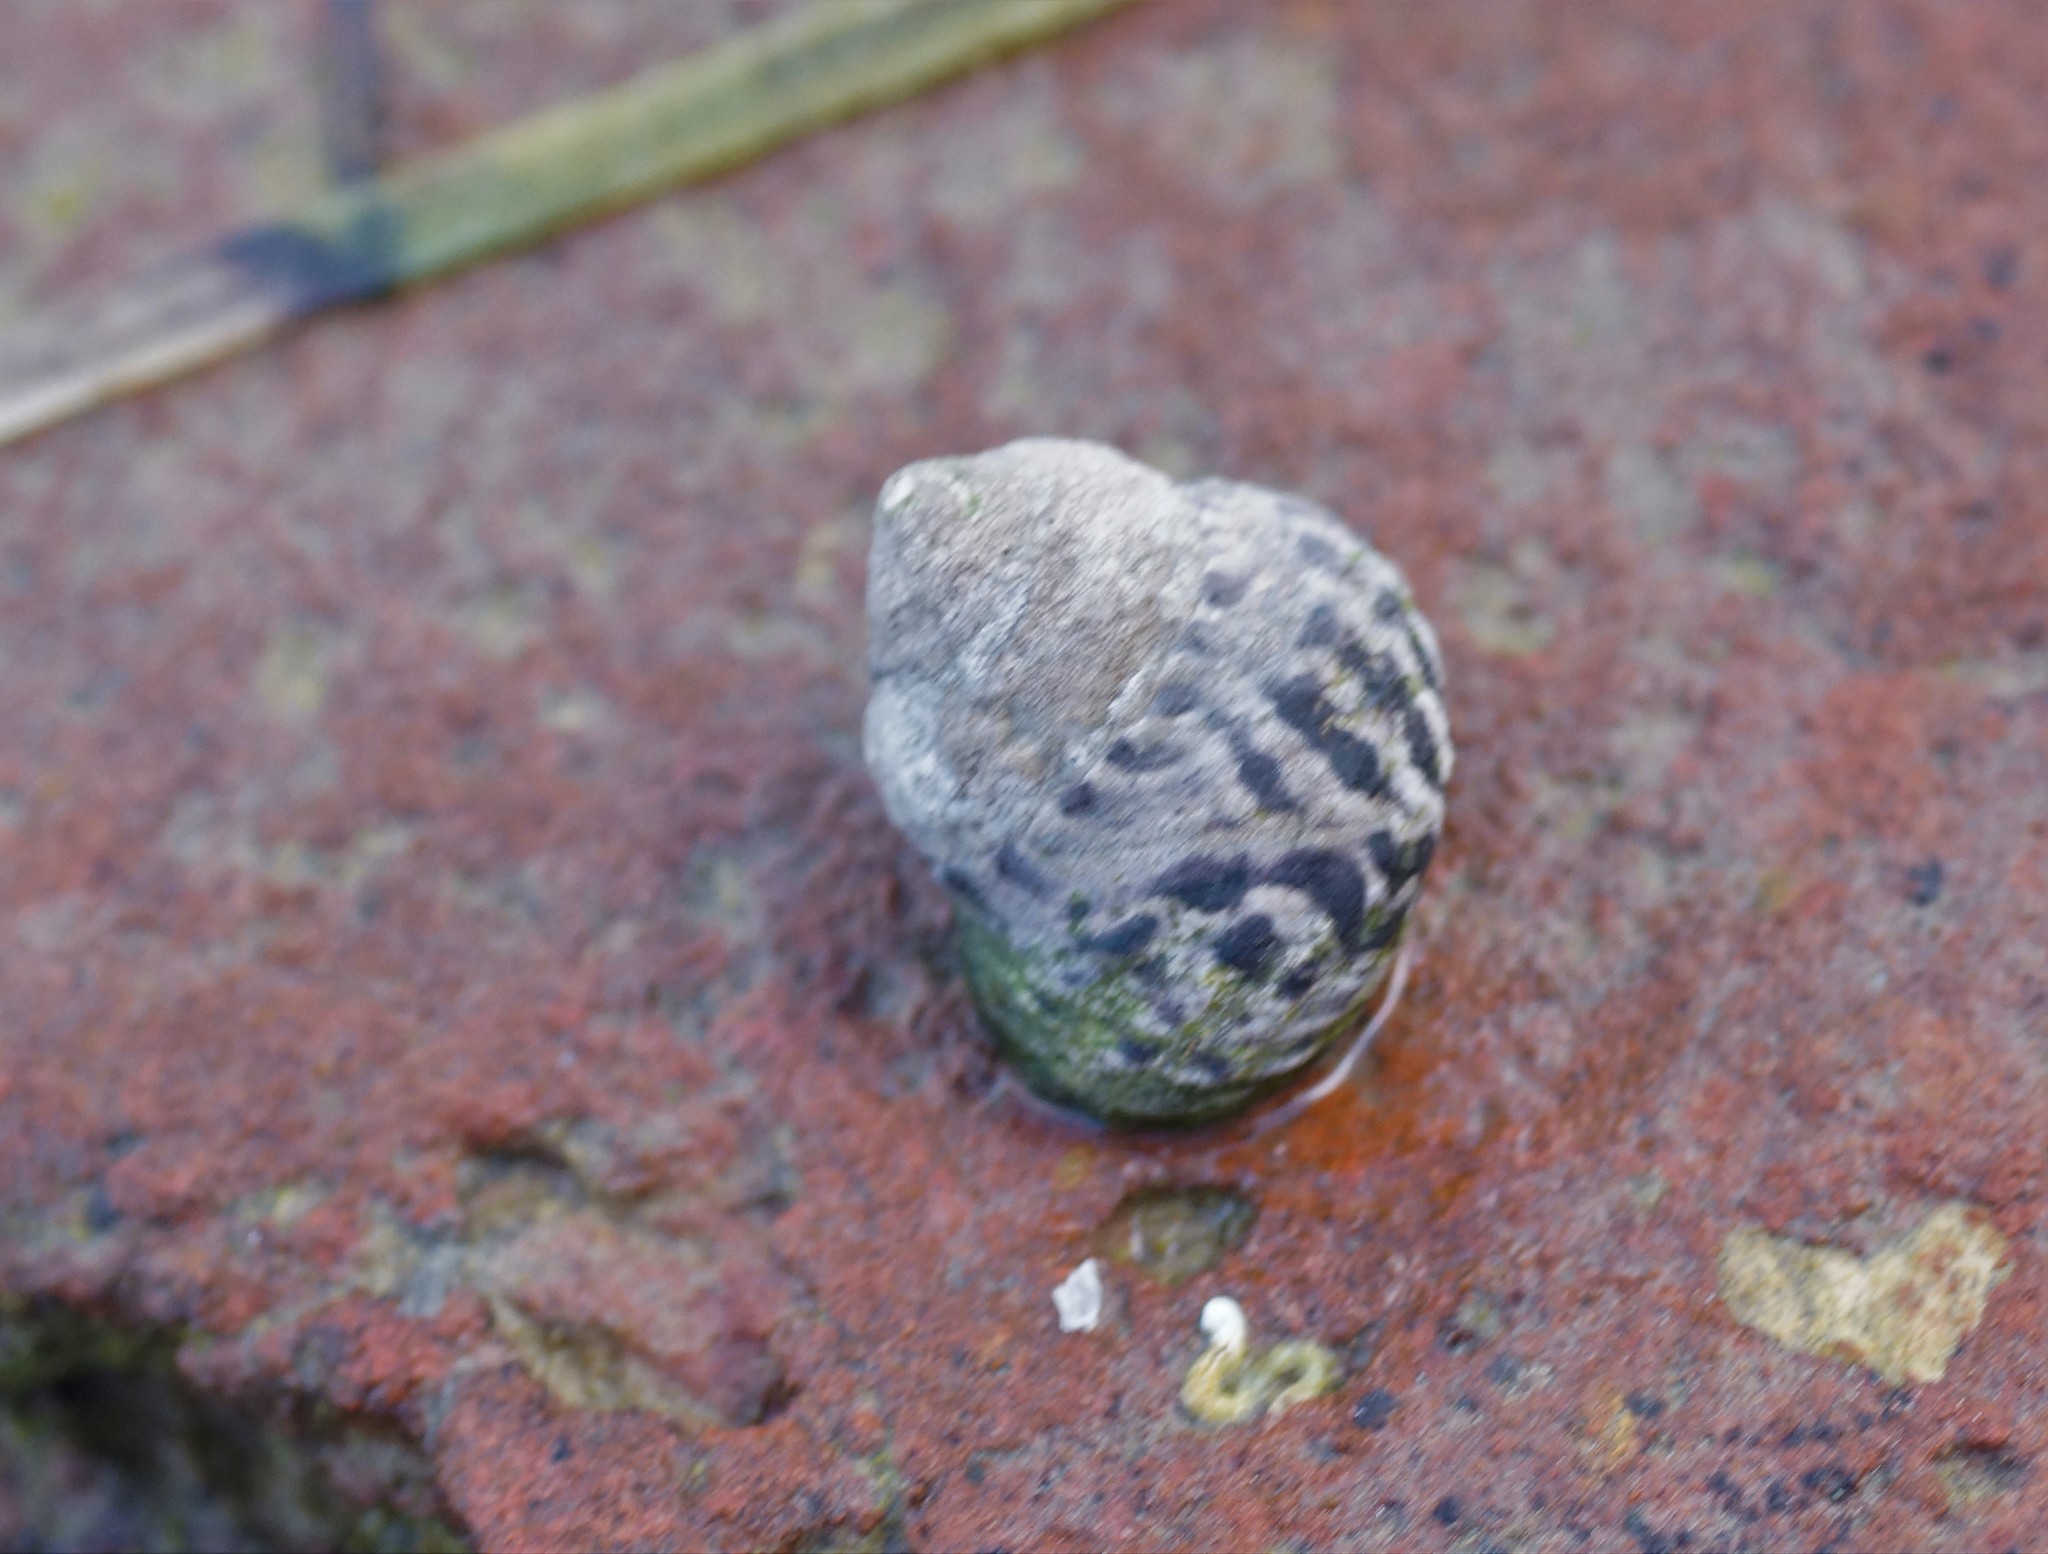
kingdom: Animalia
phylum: Mollusca
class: Gastropoda
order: Trochida
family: Trochidae
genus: Austrocochlea
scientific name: Austrocochlea porcata
